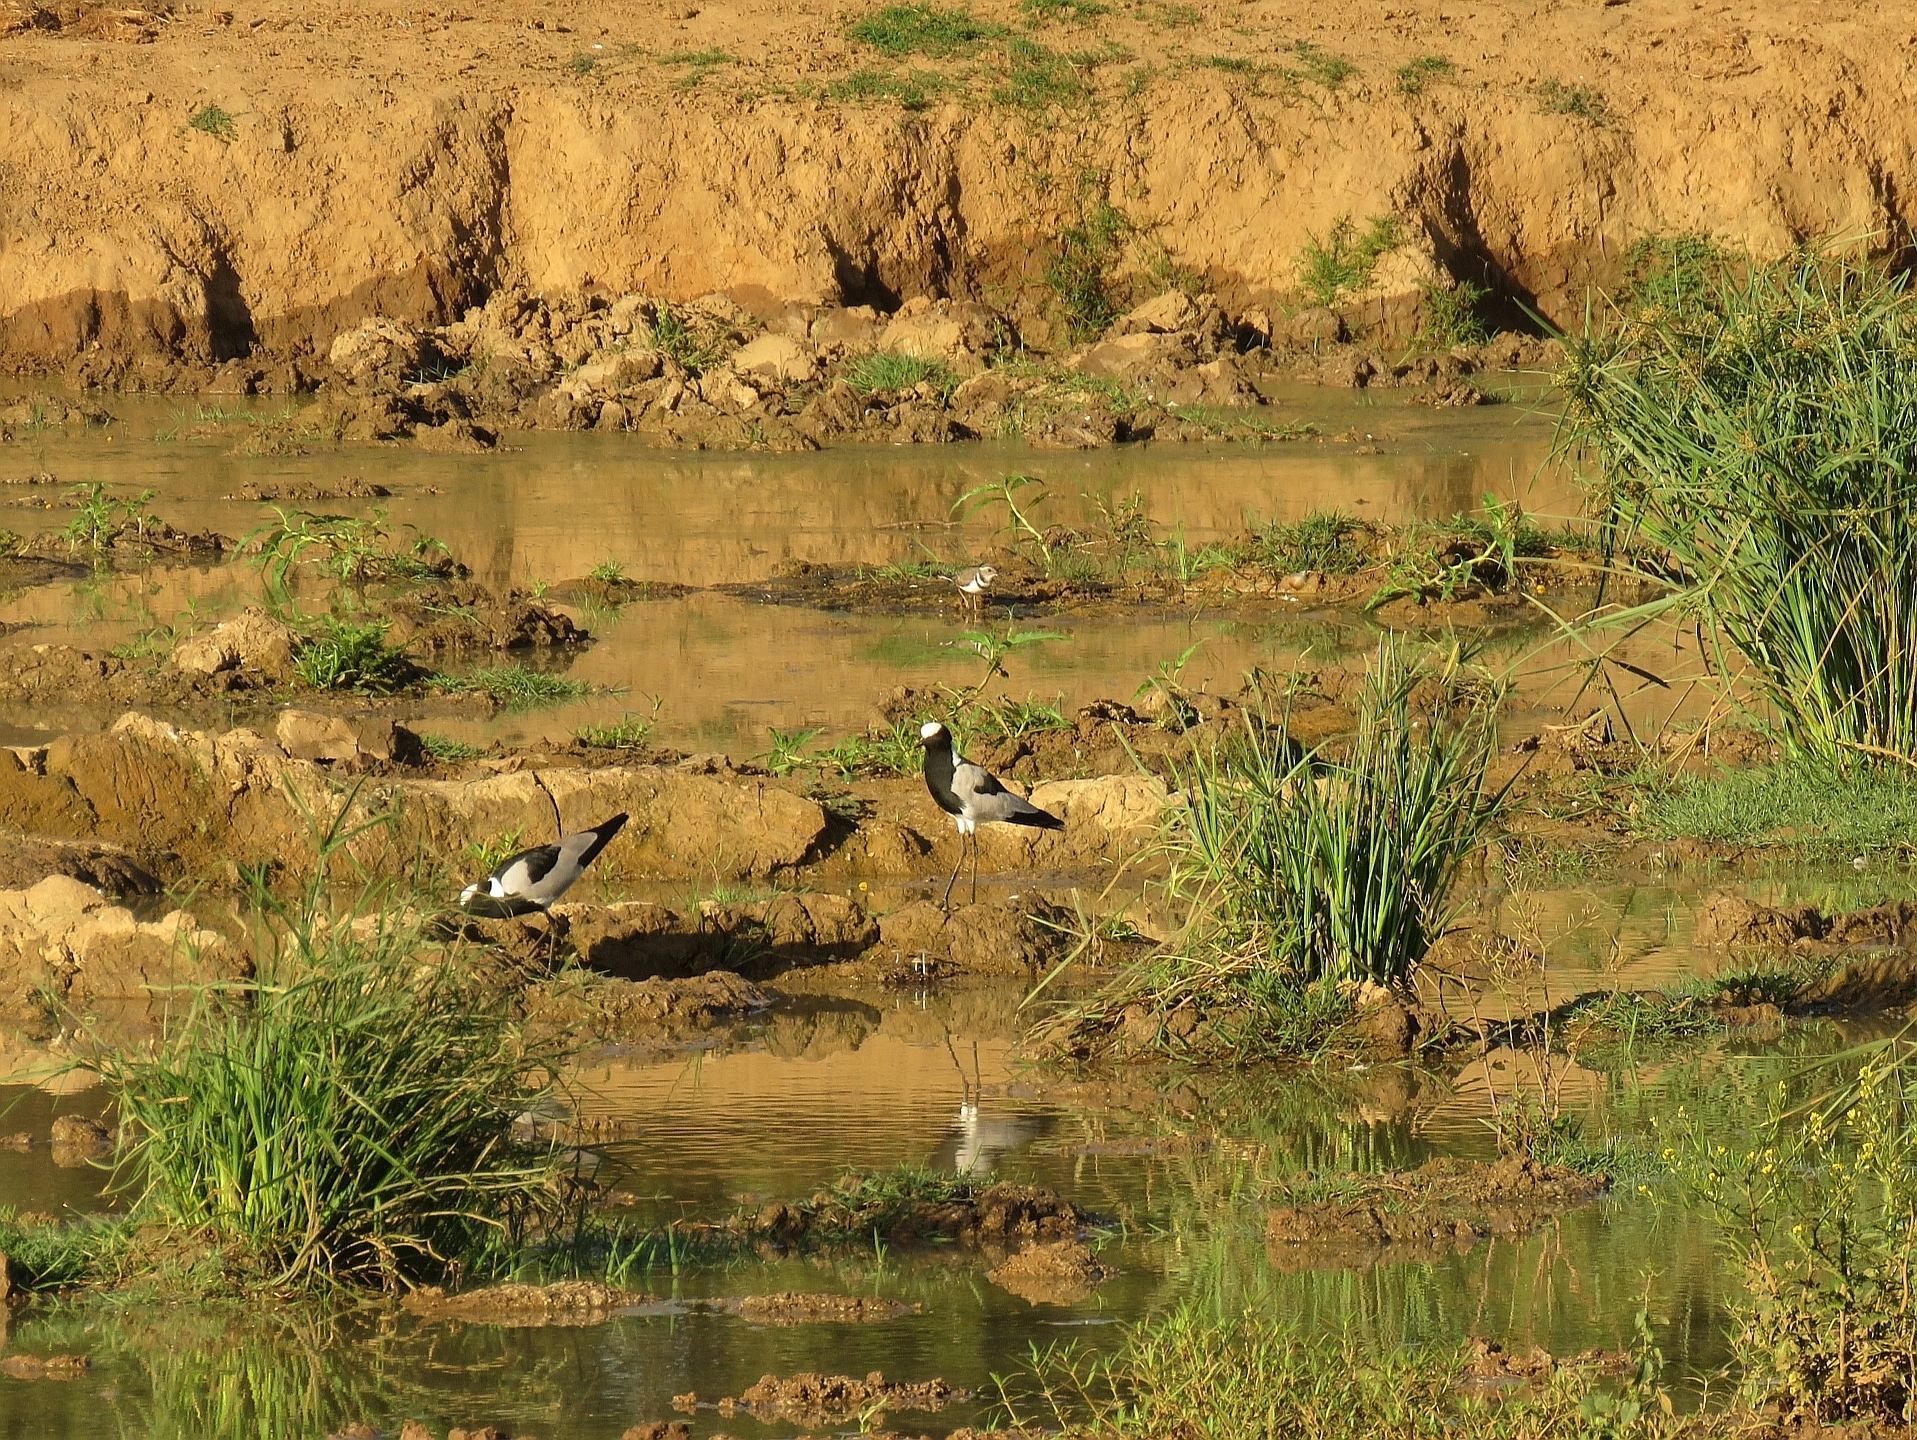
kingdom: Animalia
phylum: Chordata
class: Aves
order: Charadriiformes
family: Charadriidae
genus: Vanellus
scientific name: Vanellus armatus
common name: Blacksmith lapwing
